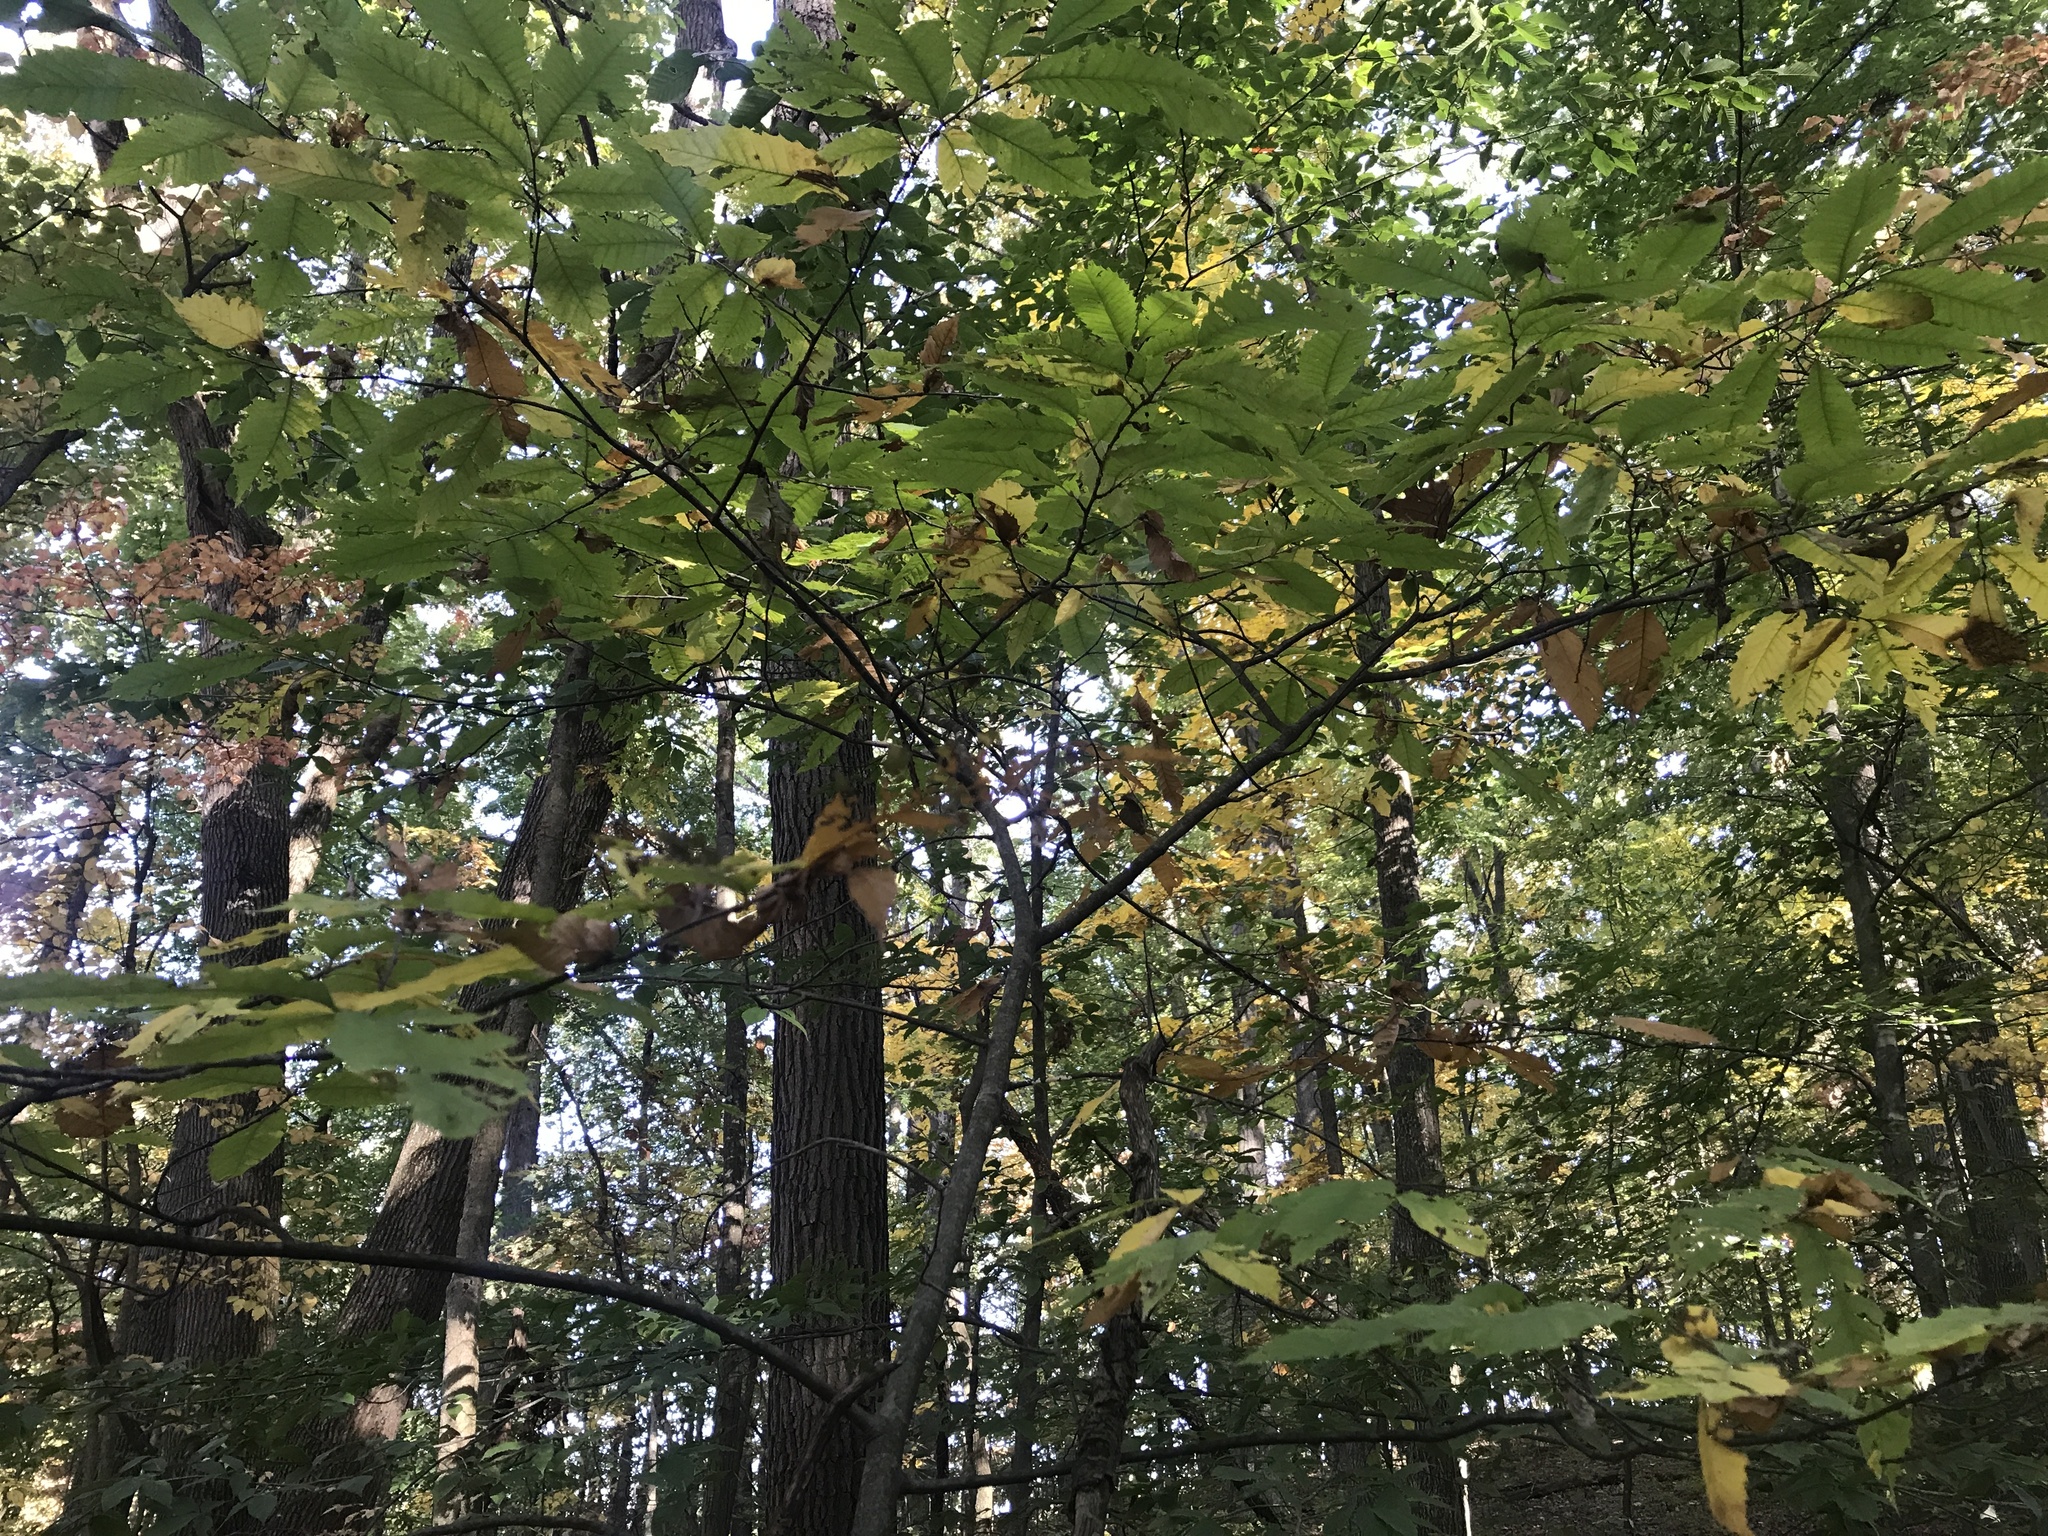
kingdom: Plantae
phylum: Tracheophyta
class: Magnoliopsida
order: Fagales
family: Fagaceae
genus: Castanea
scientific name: Castanea dentata
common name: American chestnut
